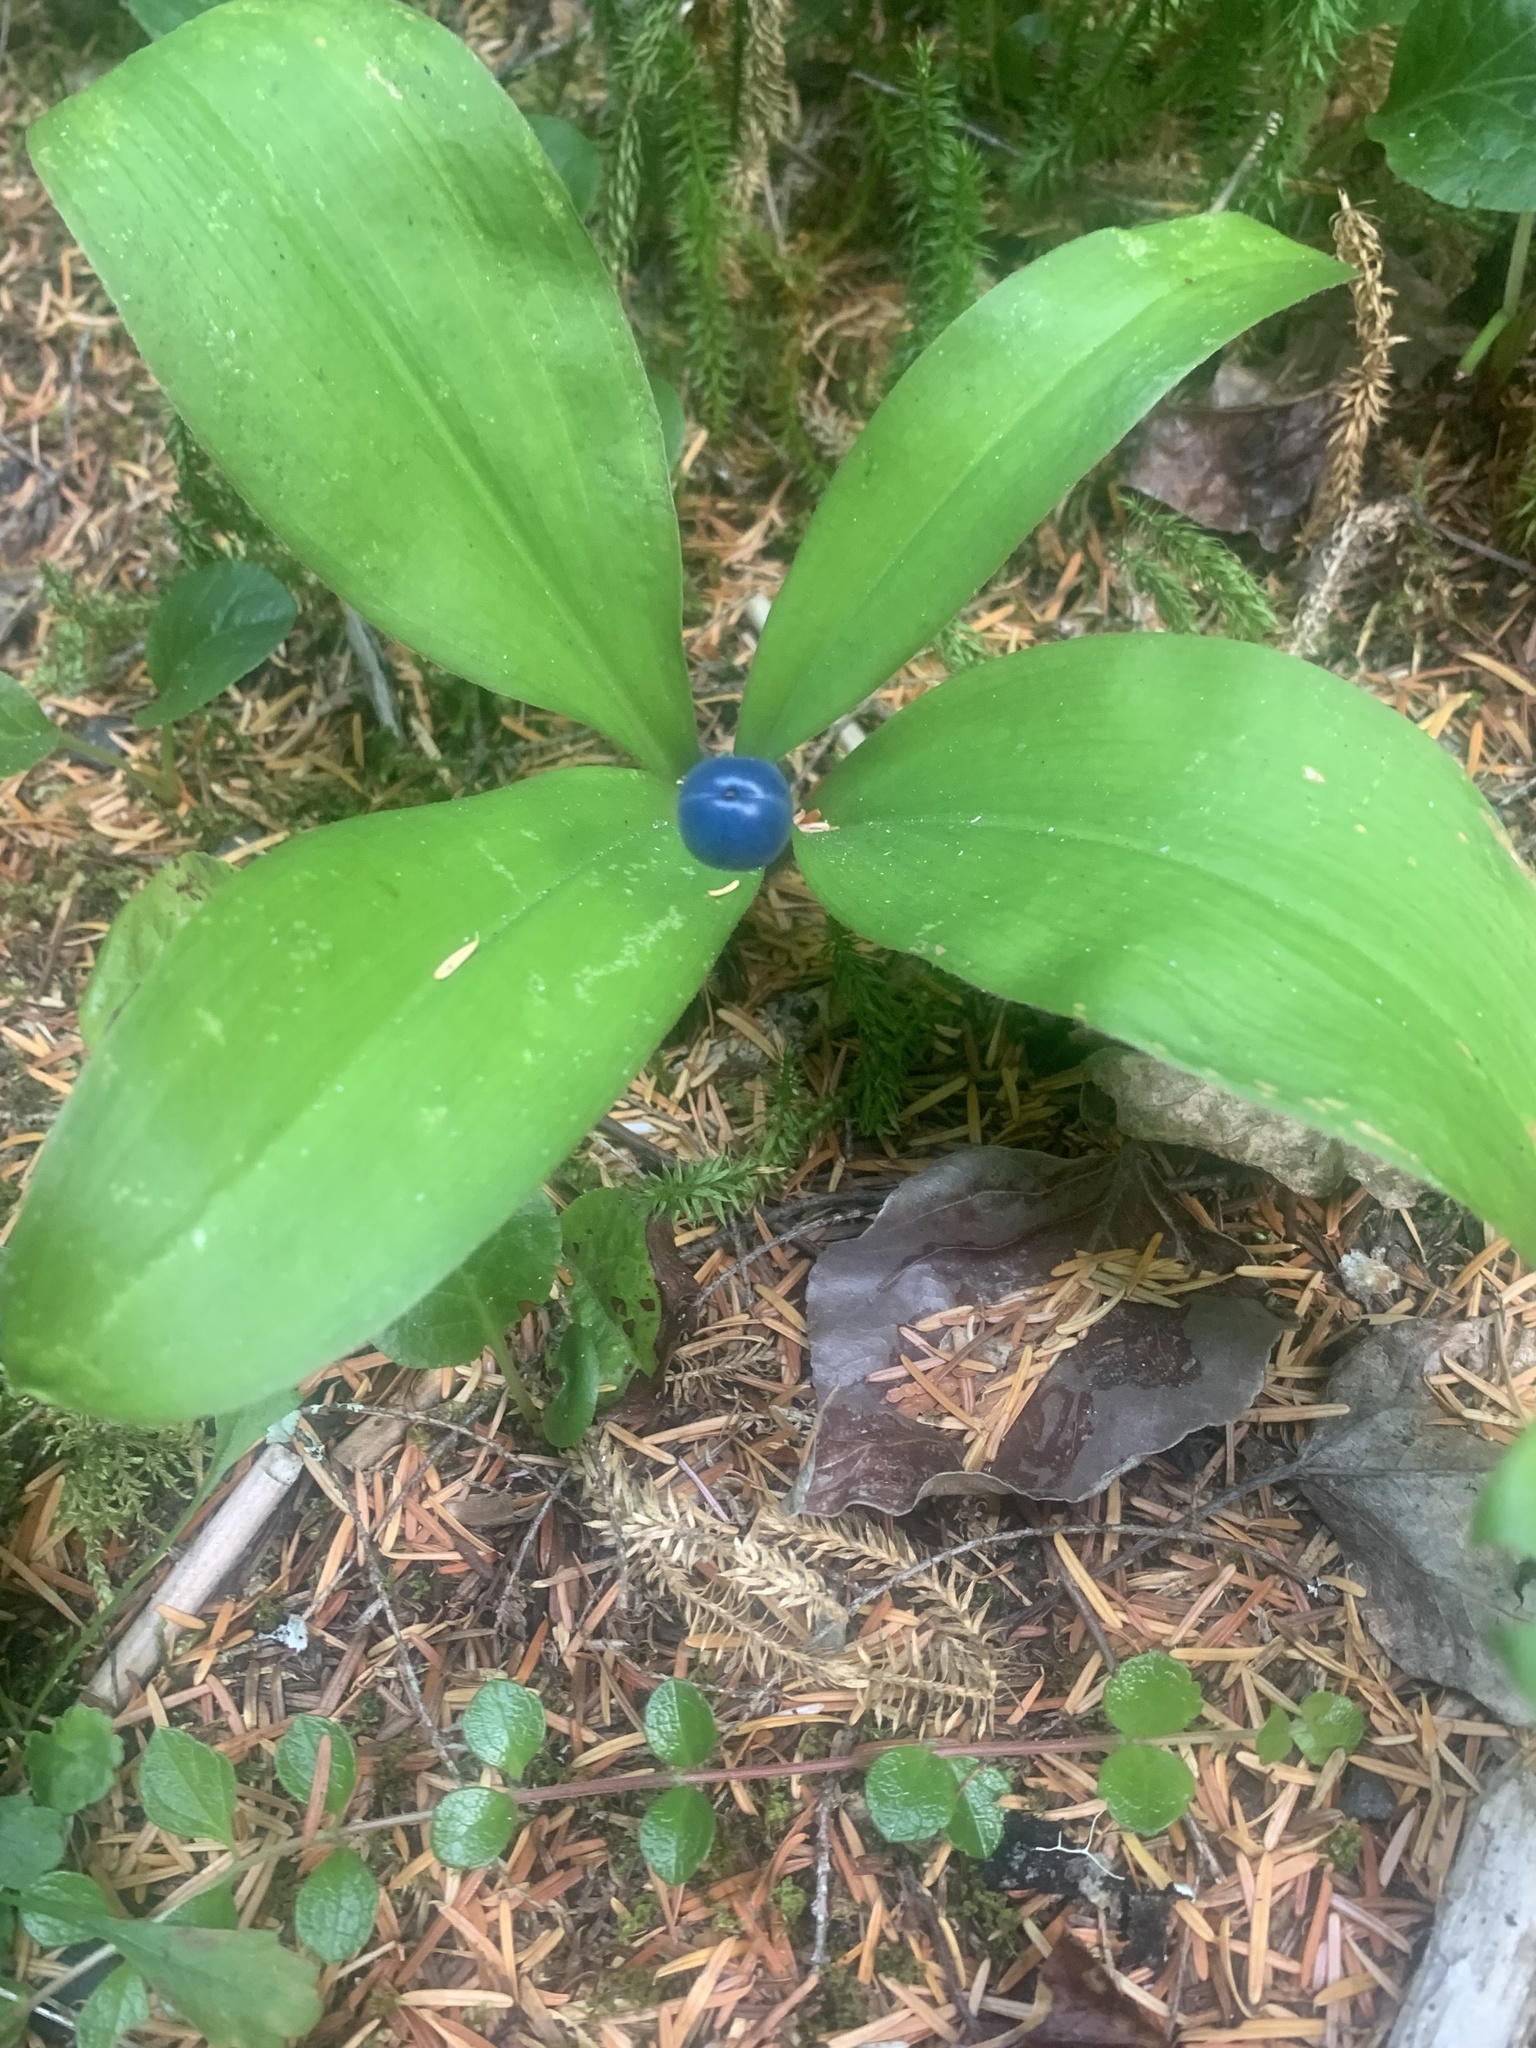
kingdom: Plantae
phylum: Tracheophyta
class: Liliopsida
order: Liliales
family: Liliaceae
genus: Clintonia
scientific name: Clintonia uniflora
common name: Queen's cup
